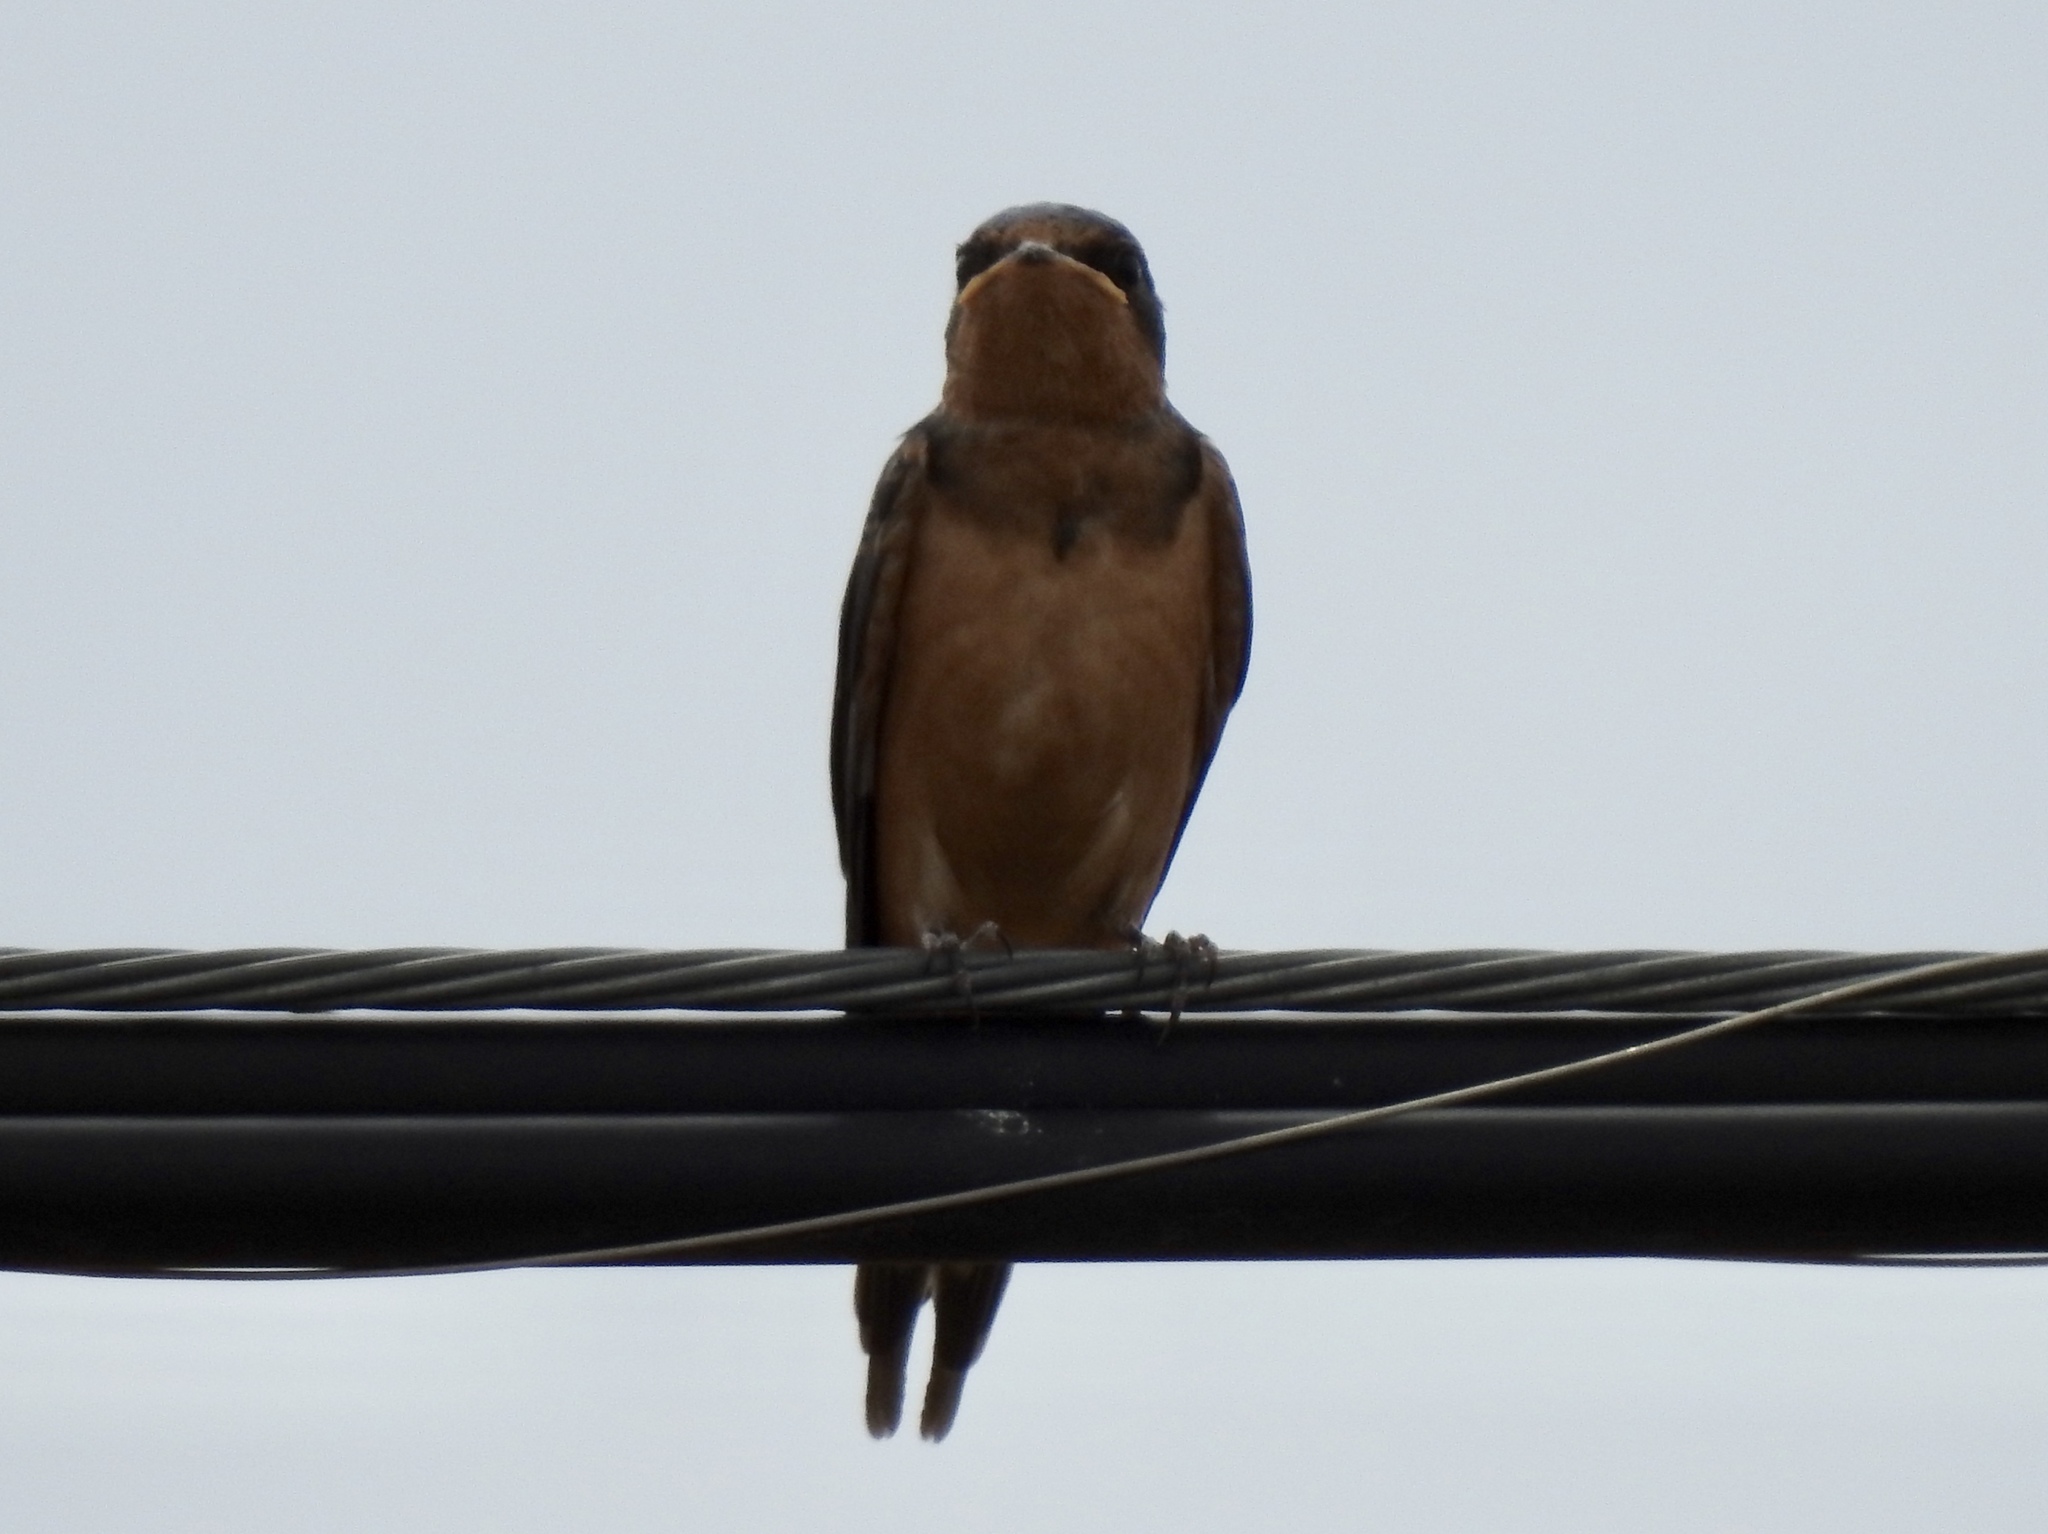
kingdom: Animalia
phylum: Chordata
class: Aves
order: Passeriformes
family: Hirundinidae
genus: Hirundo
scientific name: Hirundo rustica
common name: Barn swallow
